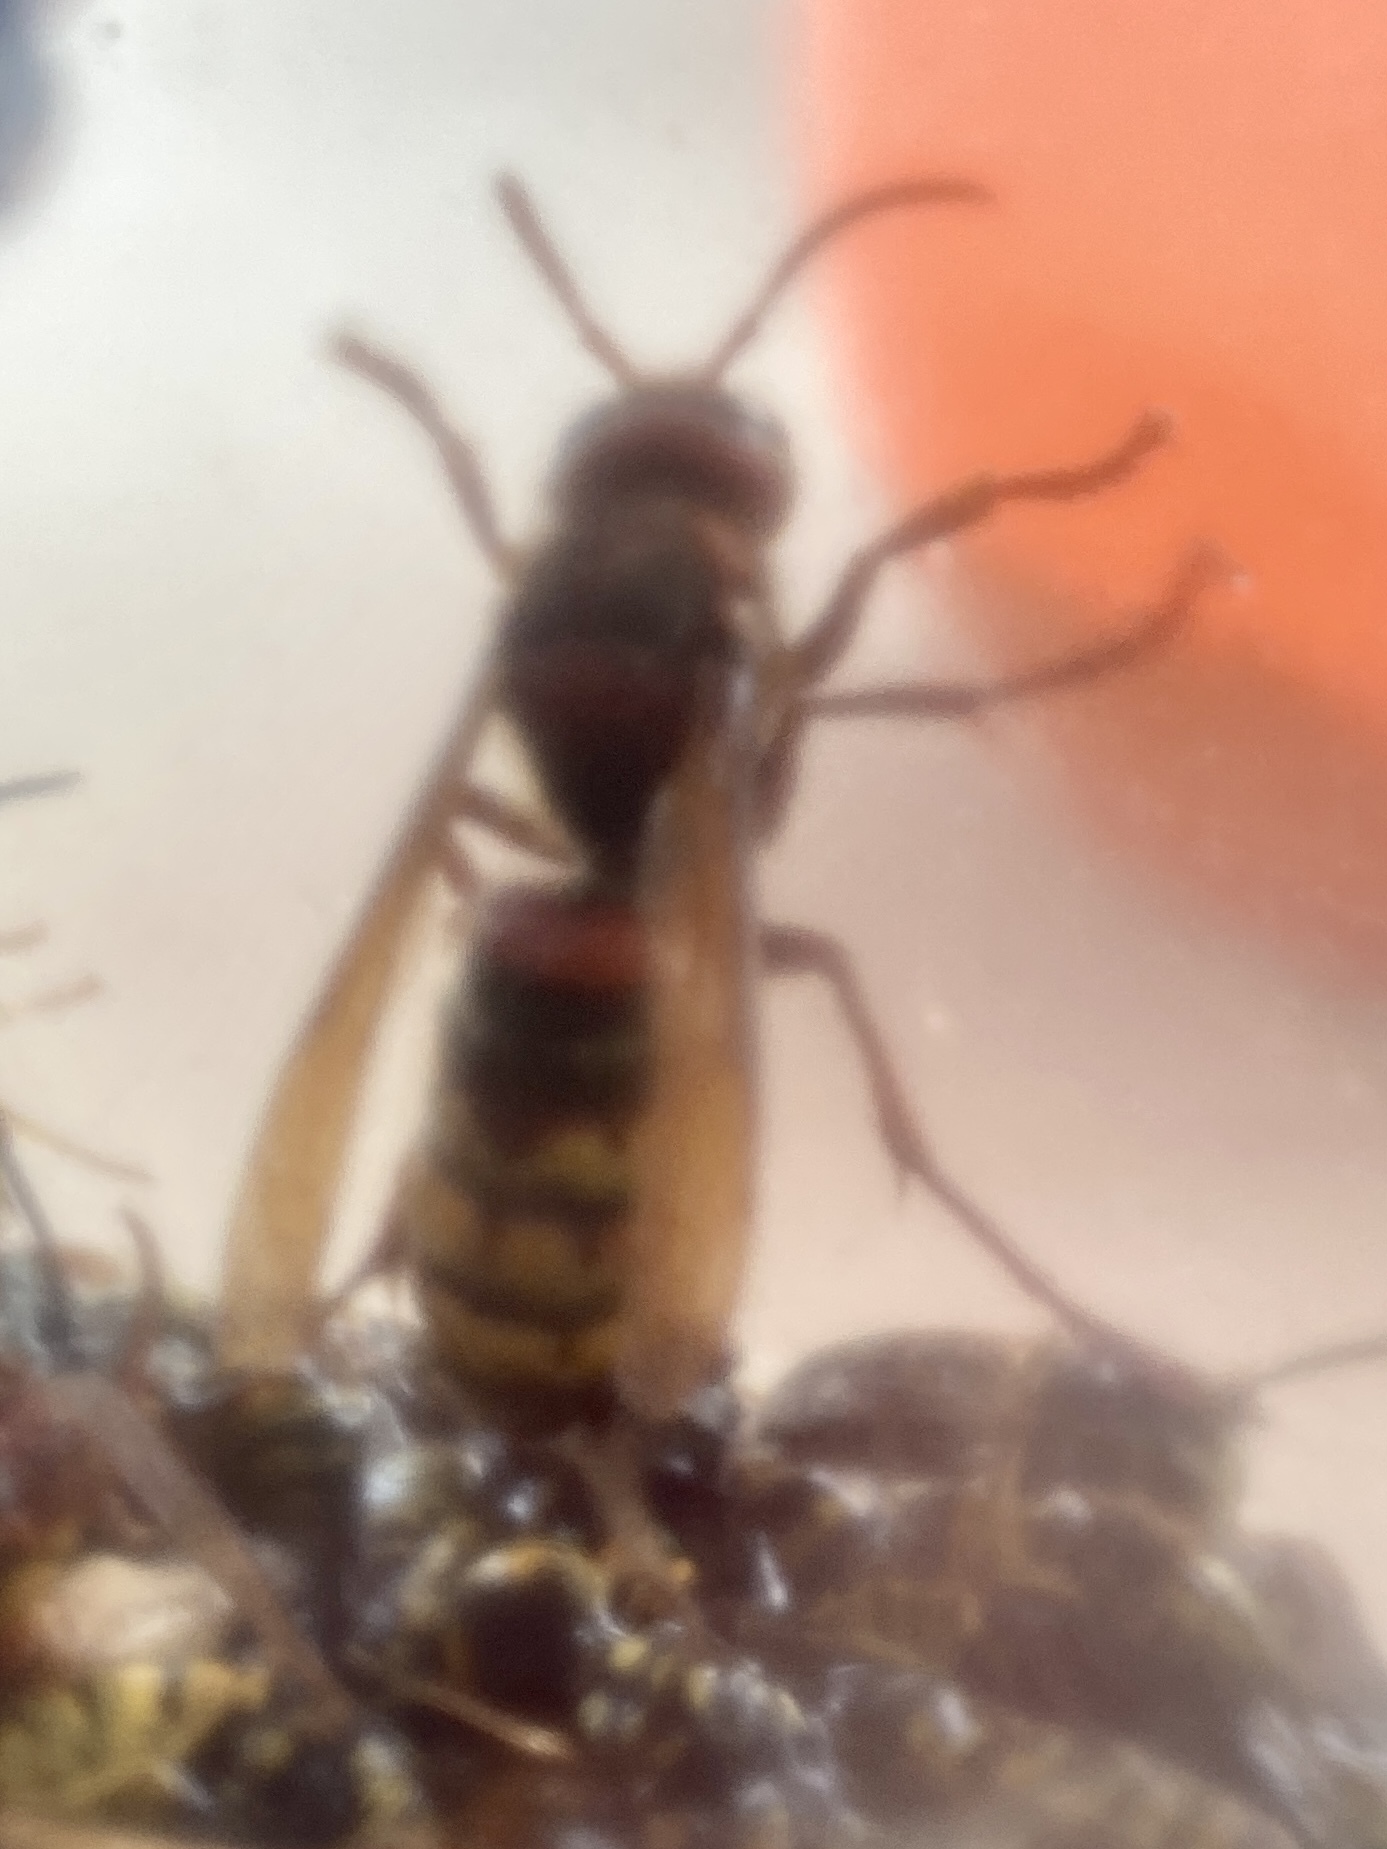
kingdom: Animalia
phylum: Arthropoda
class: Insecta
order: Hymenoptera
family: Vespidae
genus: Vespa
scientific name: Vespa crabro
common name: Hornet
